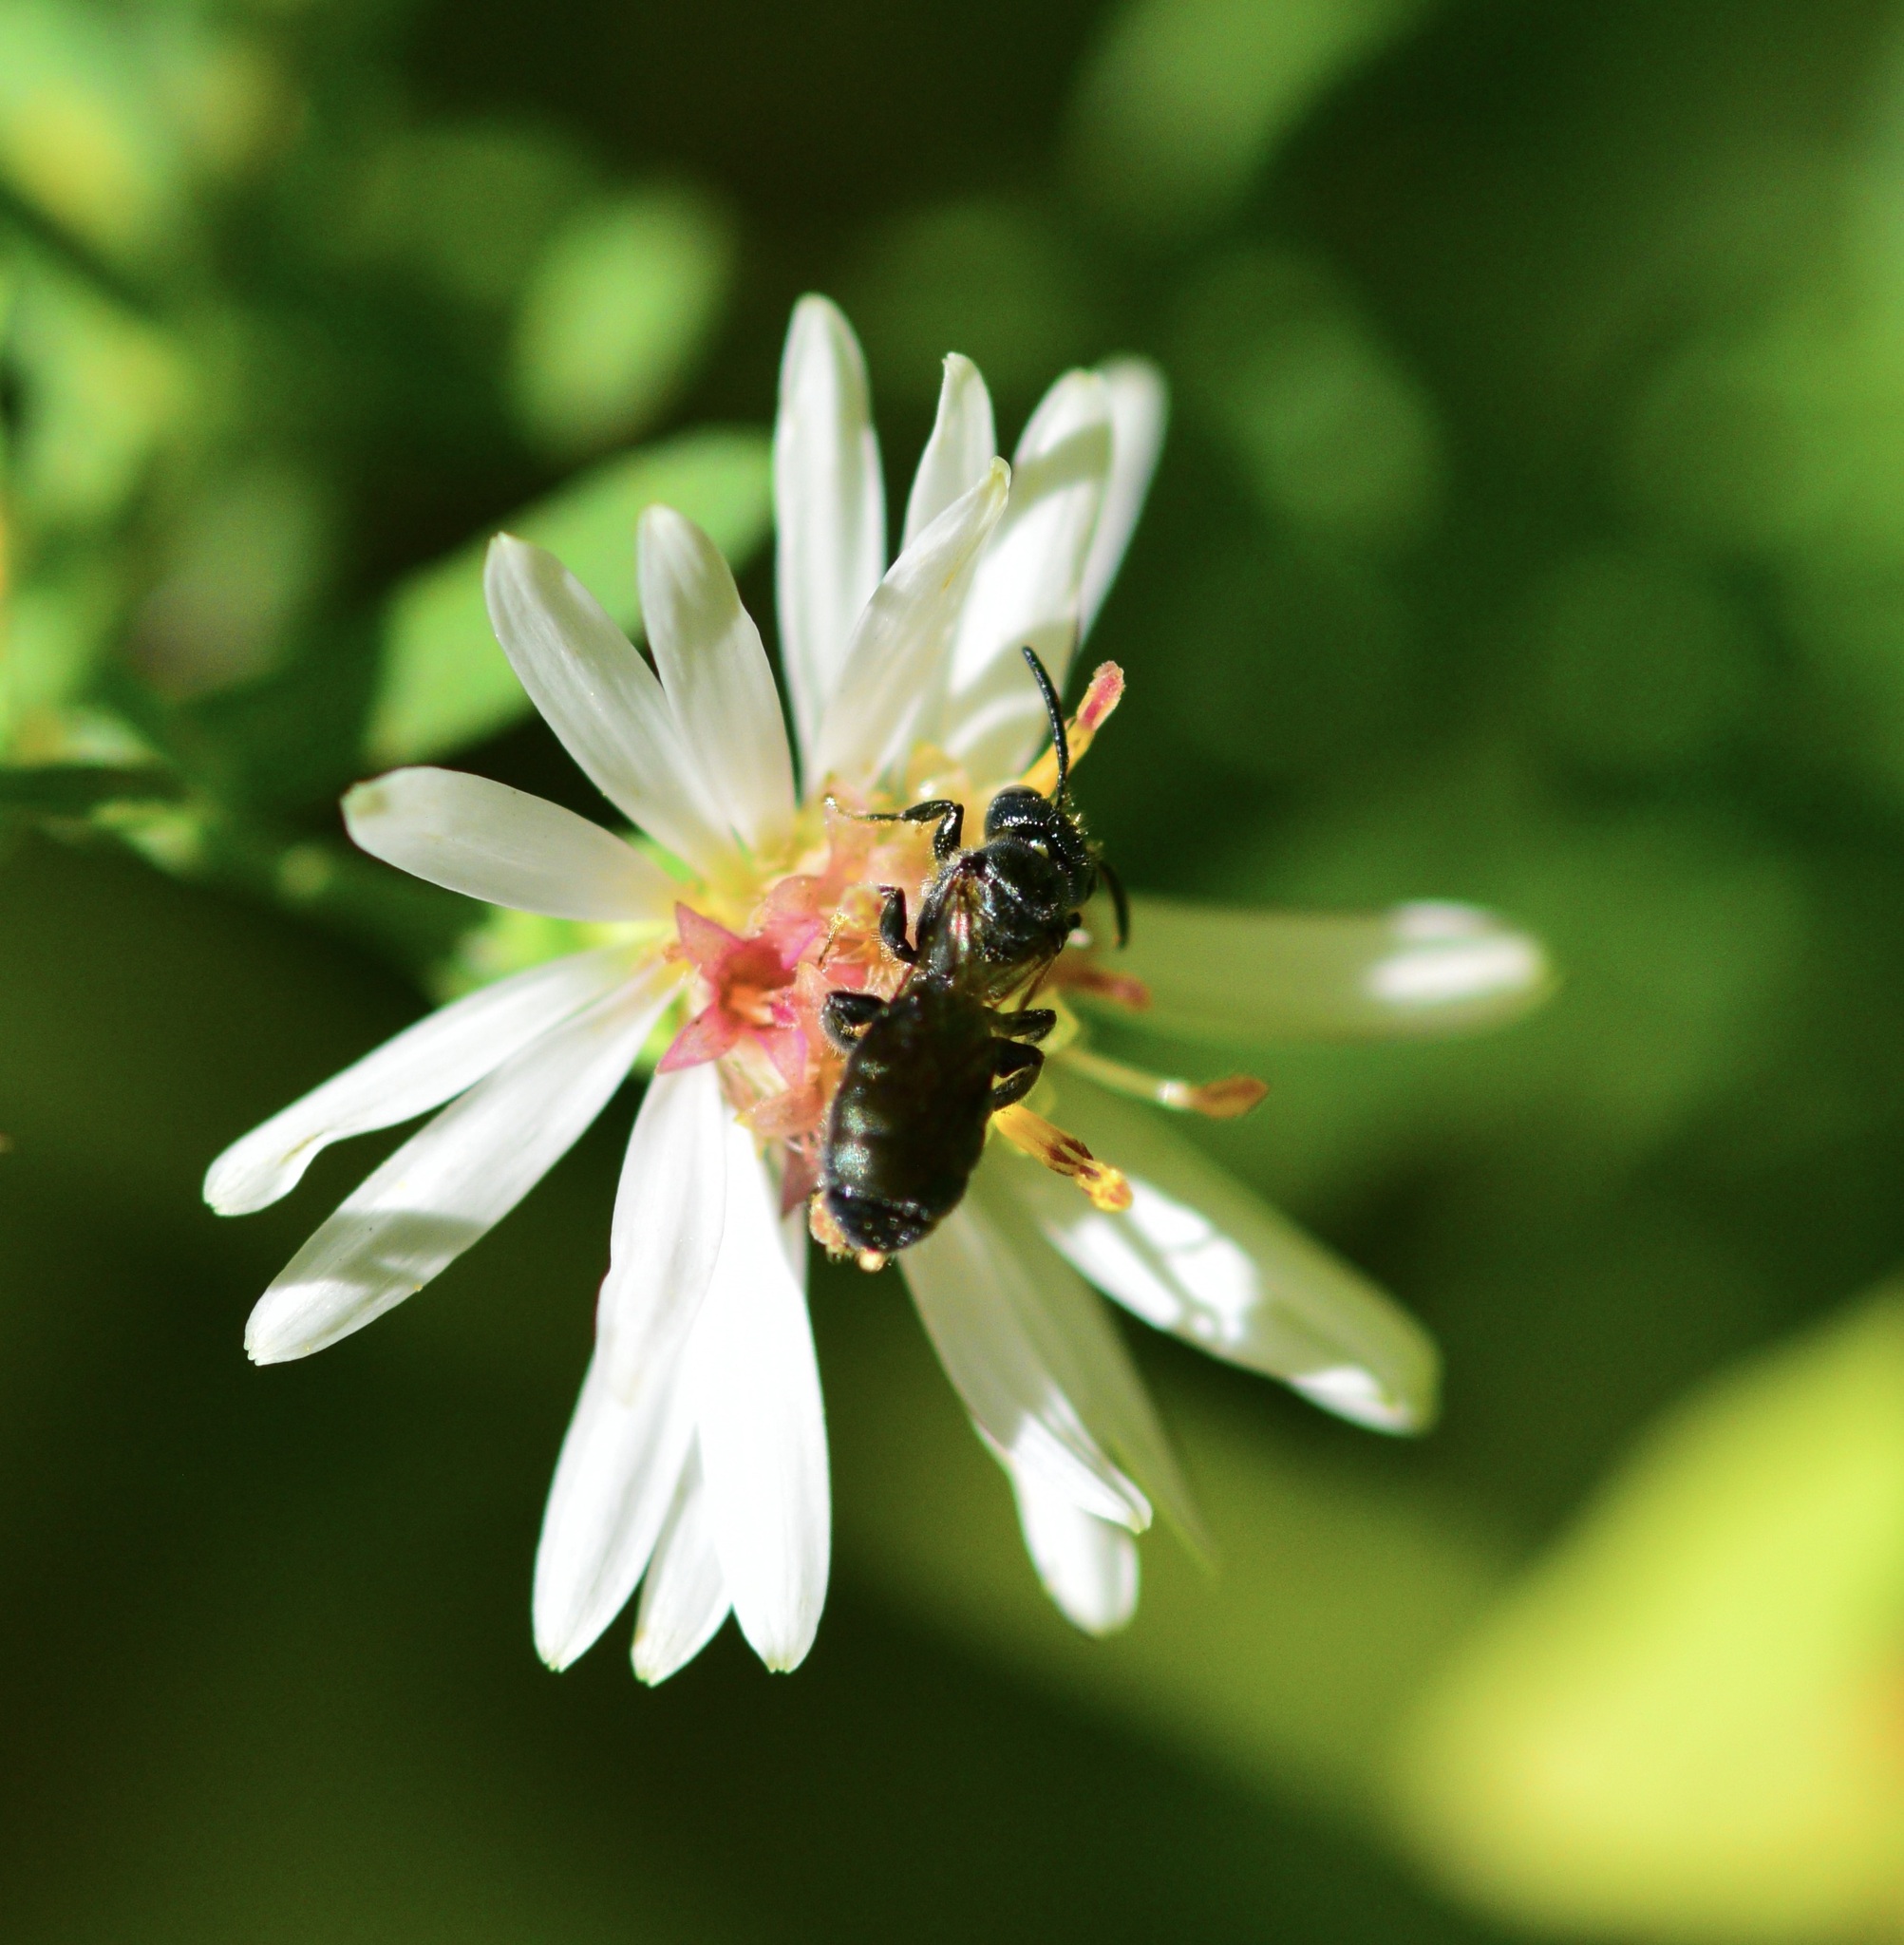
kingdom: Animalia
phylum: Arthropoda
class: Insecta
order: Hymenoptera
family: Apidae
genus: Ceratina
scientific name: Ceratina calcarata
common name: Spurred carpenter bee
